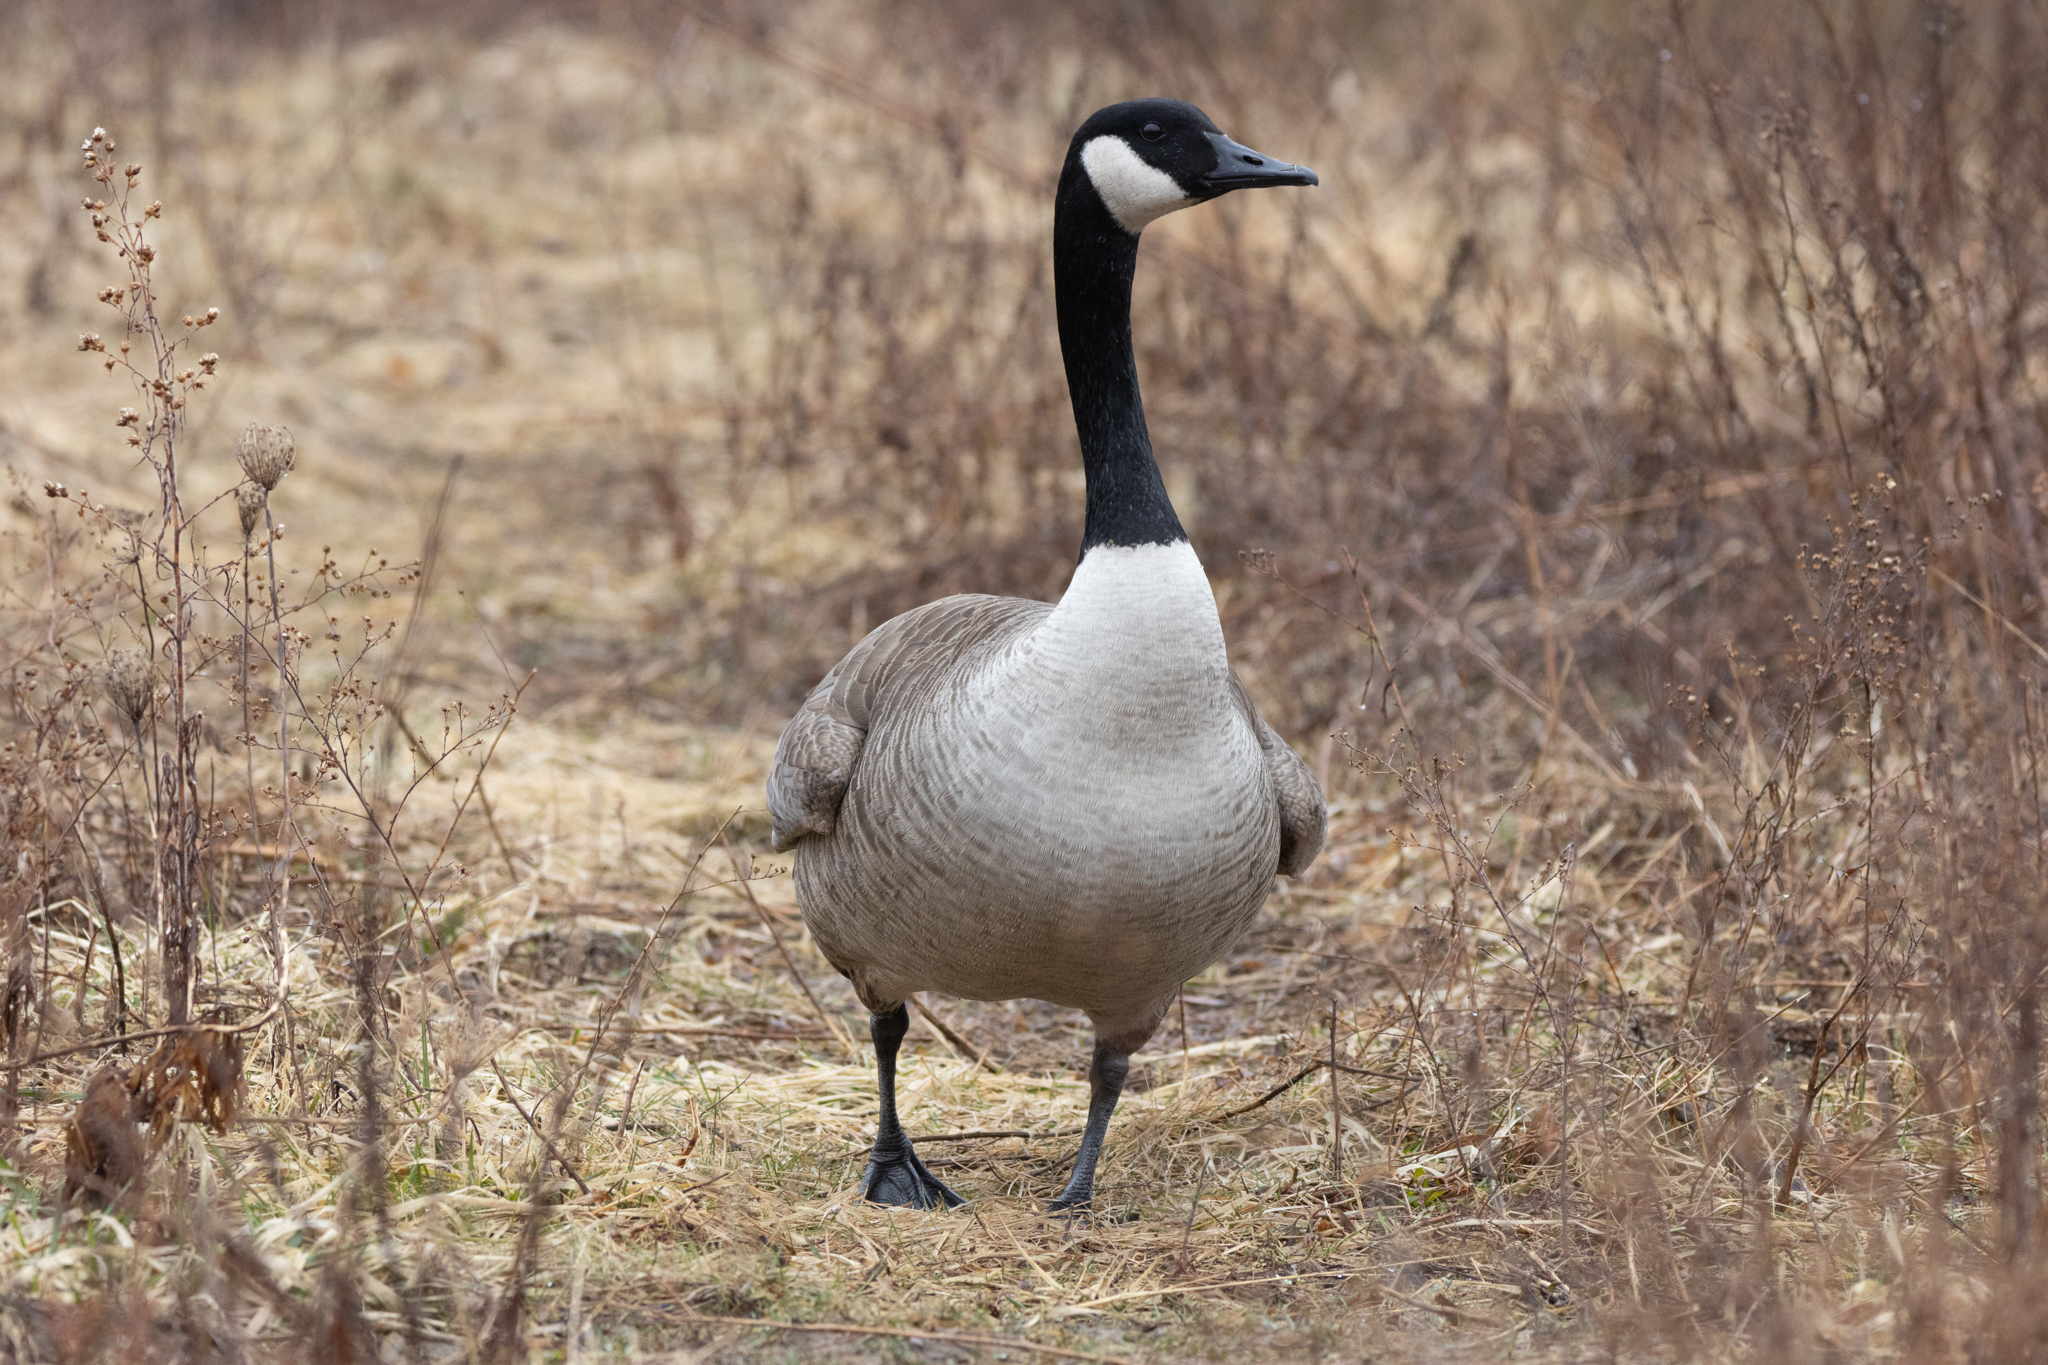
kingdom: Animalia
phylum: Chordata
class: Aves
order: Anseriformes
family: Anatidae
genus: Branta
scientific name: Branta canadensis
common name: Canada goose
